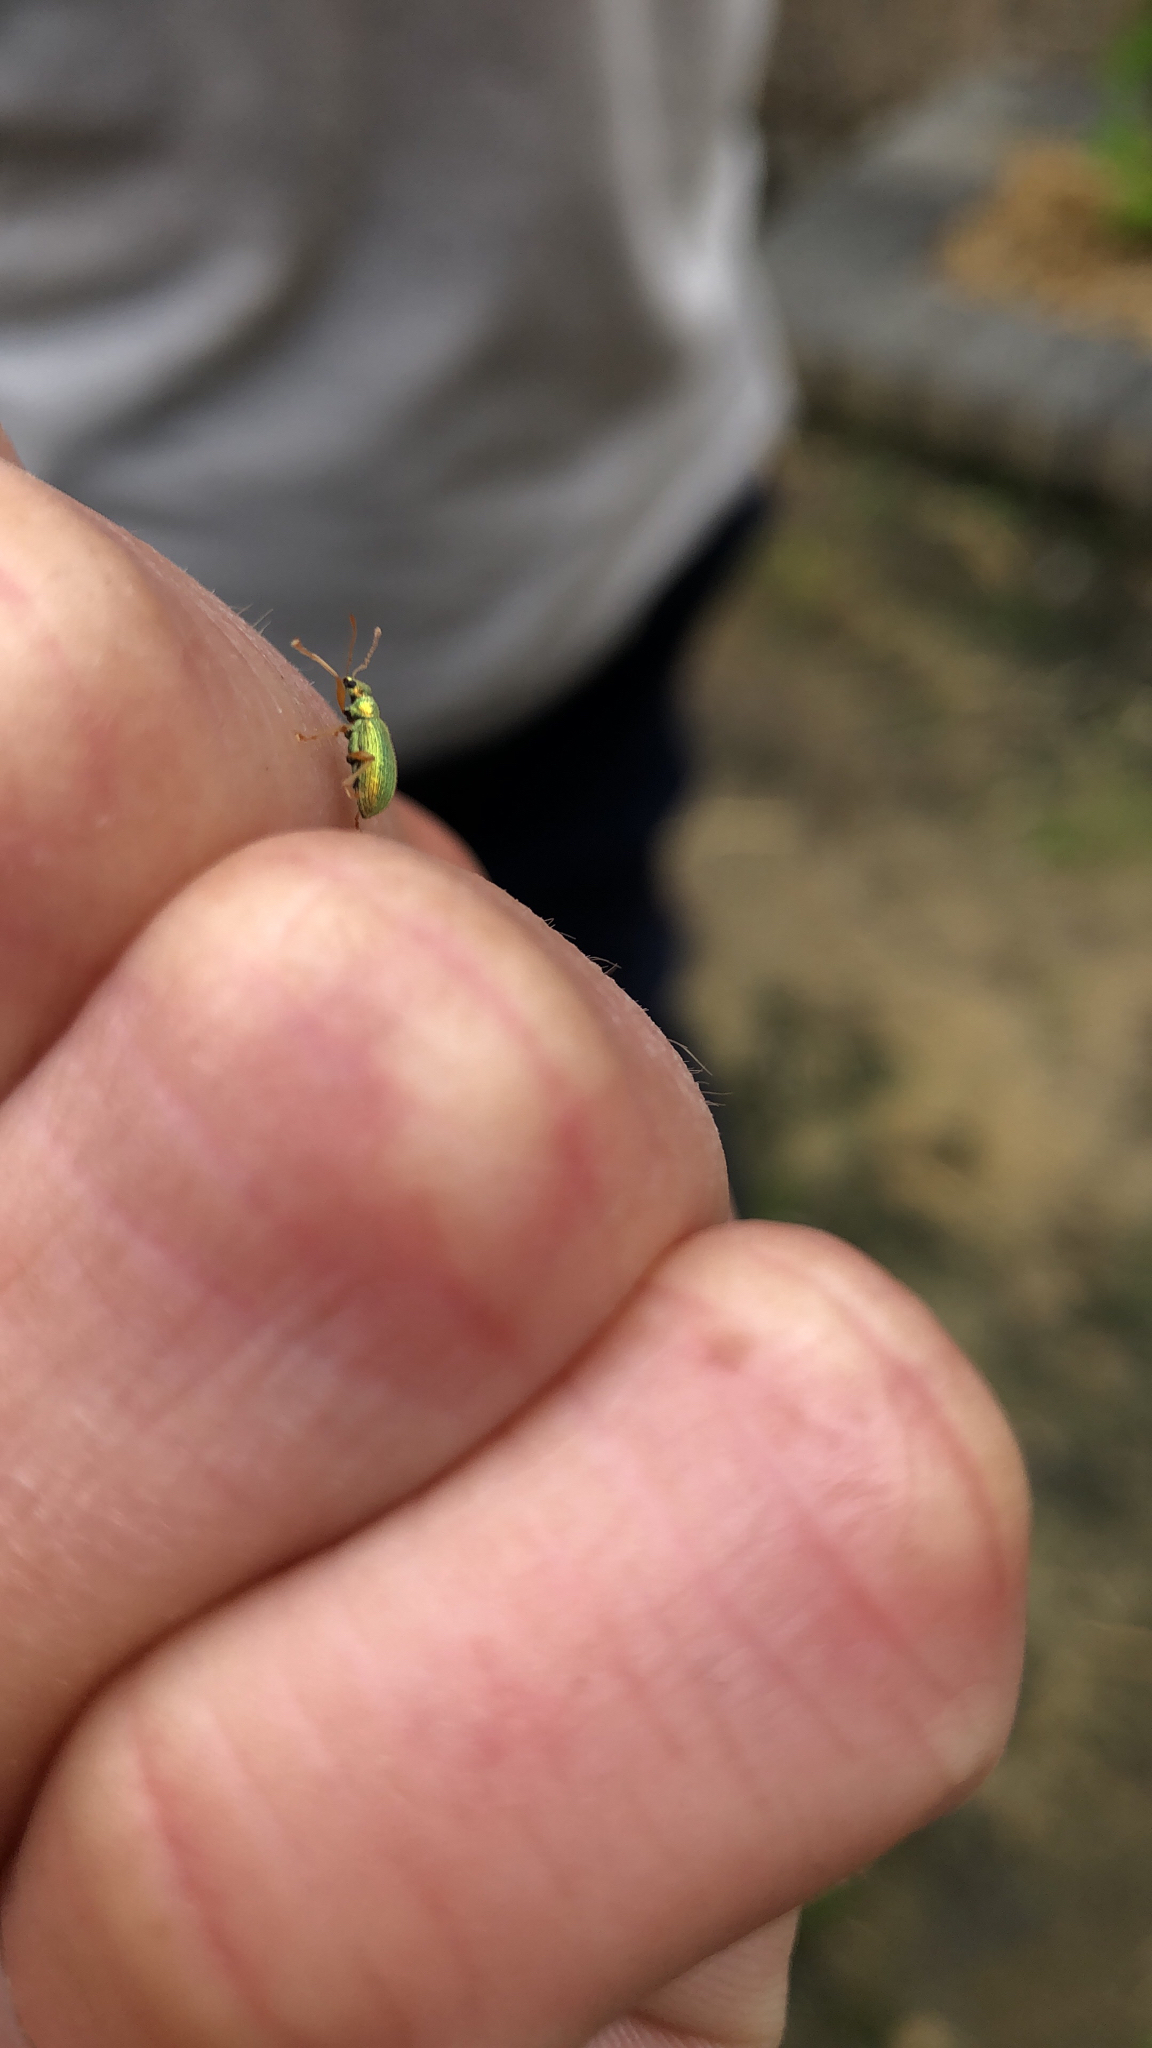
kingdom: Animalia
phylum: Arthropoda
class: Insecta
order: Coleoptera
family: Curculionidae
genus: Polydrusus
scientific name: Polydrusus pterygomalis
